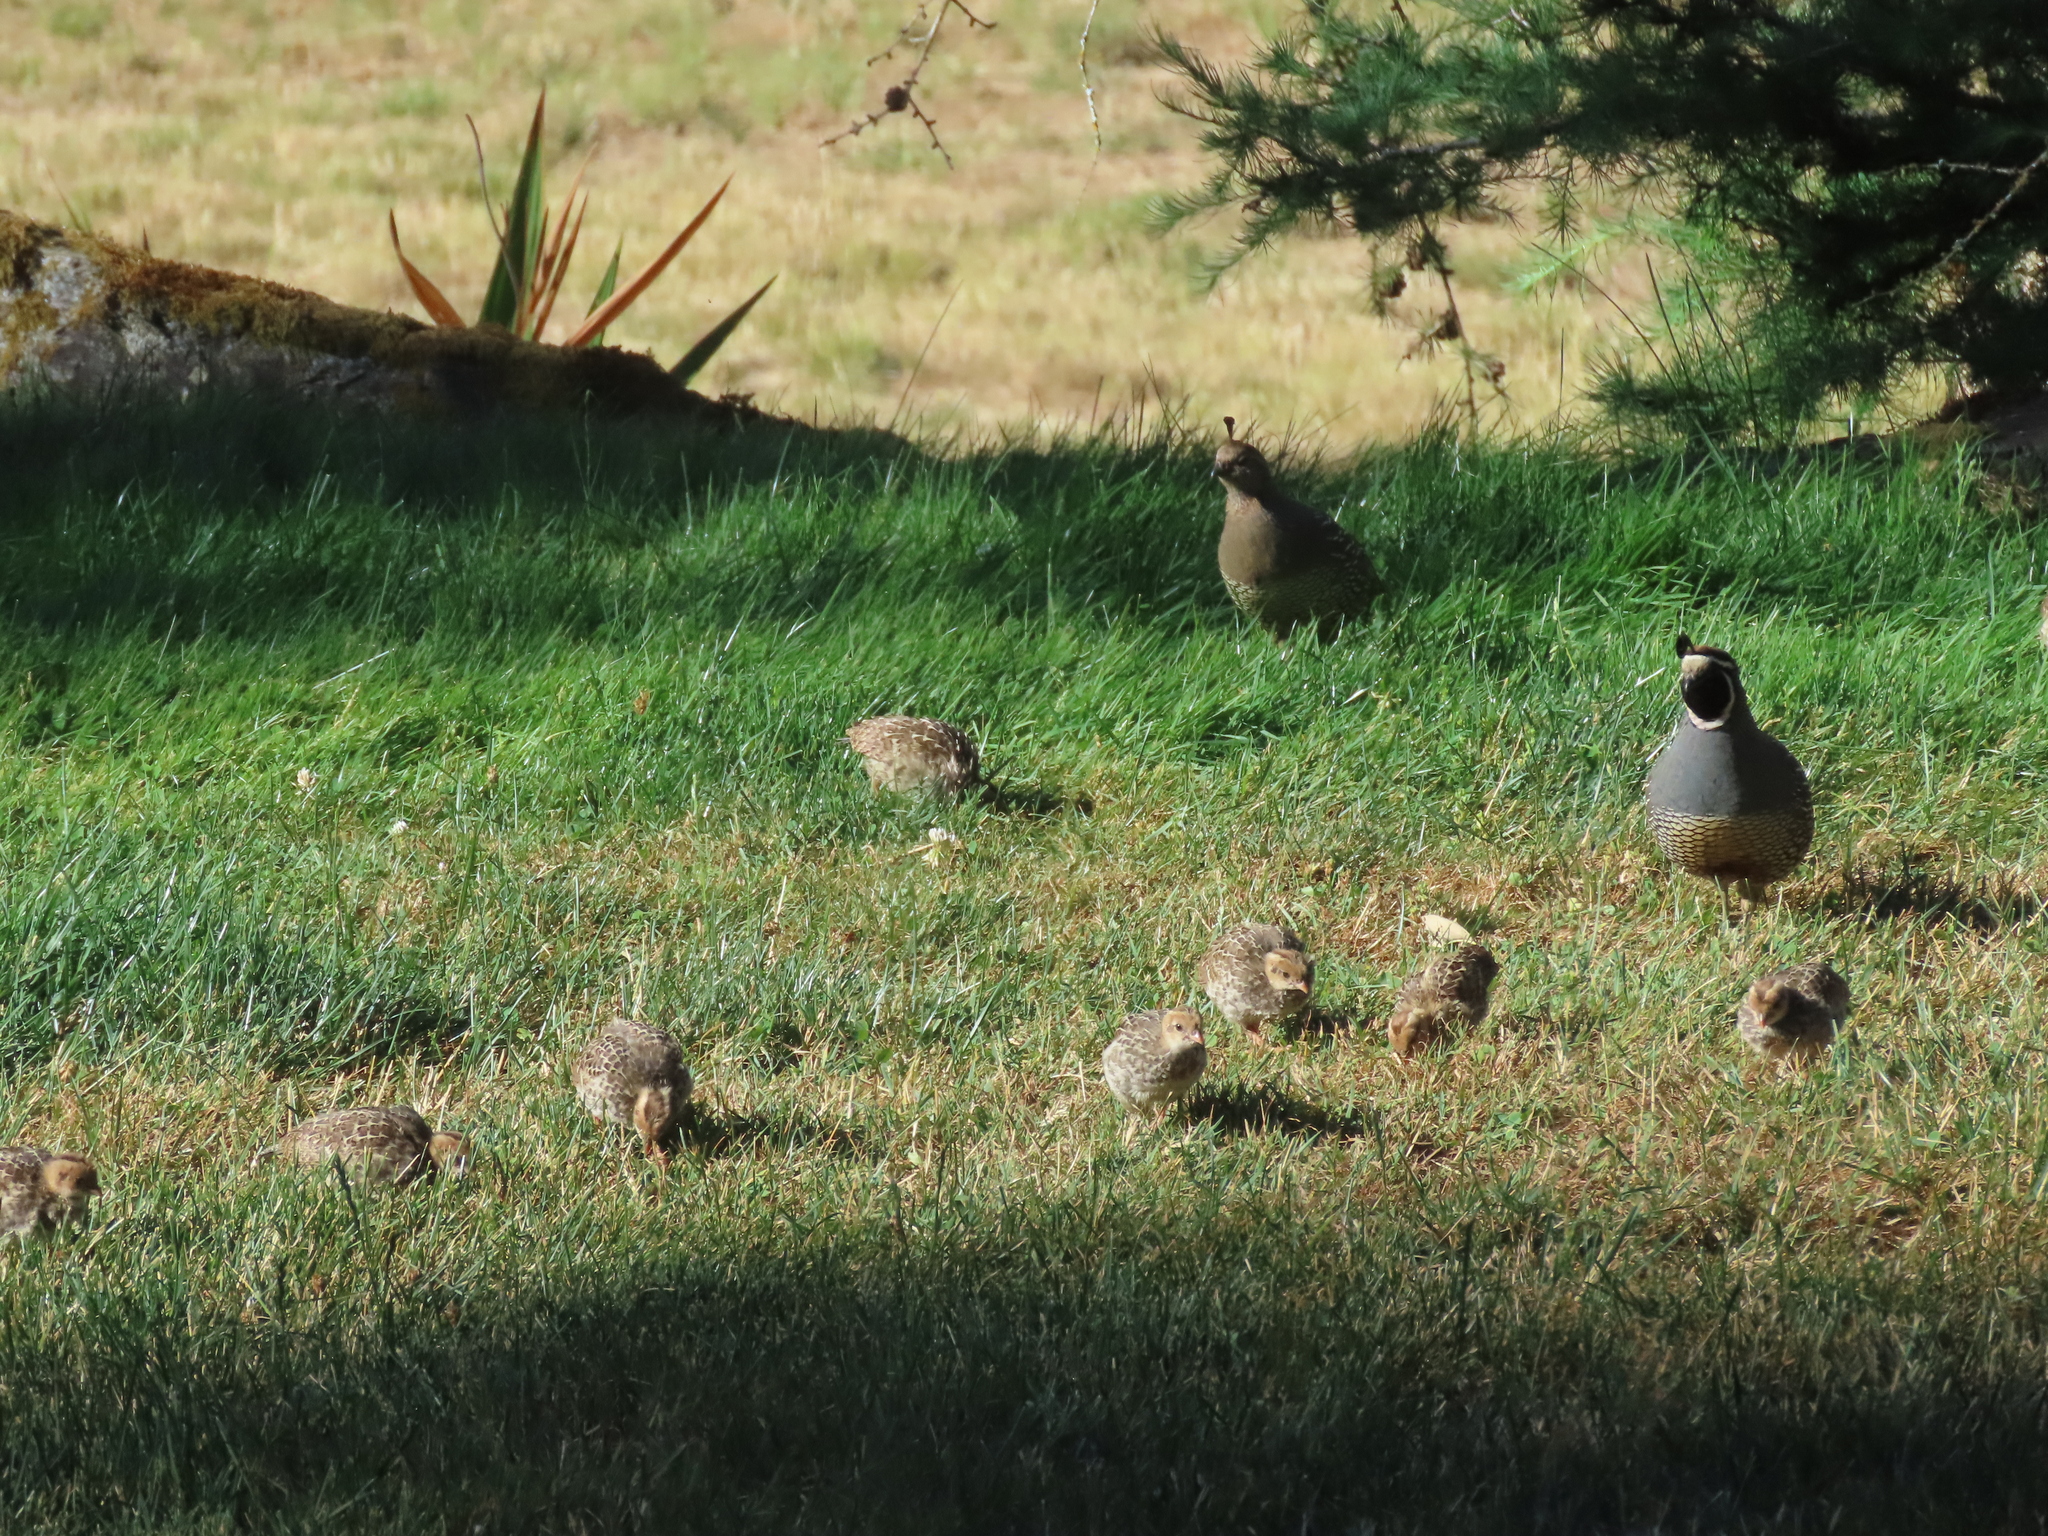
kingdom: Animalia
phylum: Chordata
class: Aves
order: Galliformes
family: Odontophoridae
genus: Callipepla
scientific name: Callipepla californica
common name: California quail
